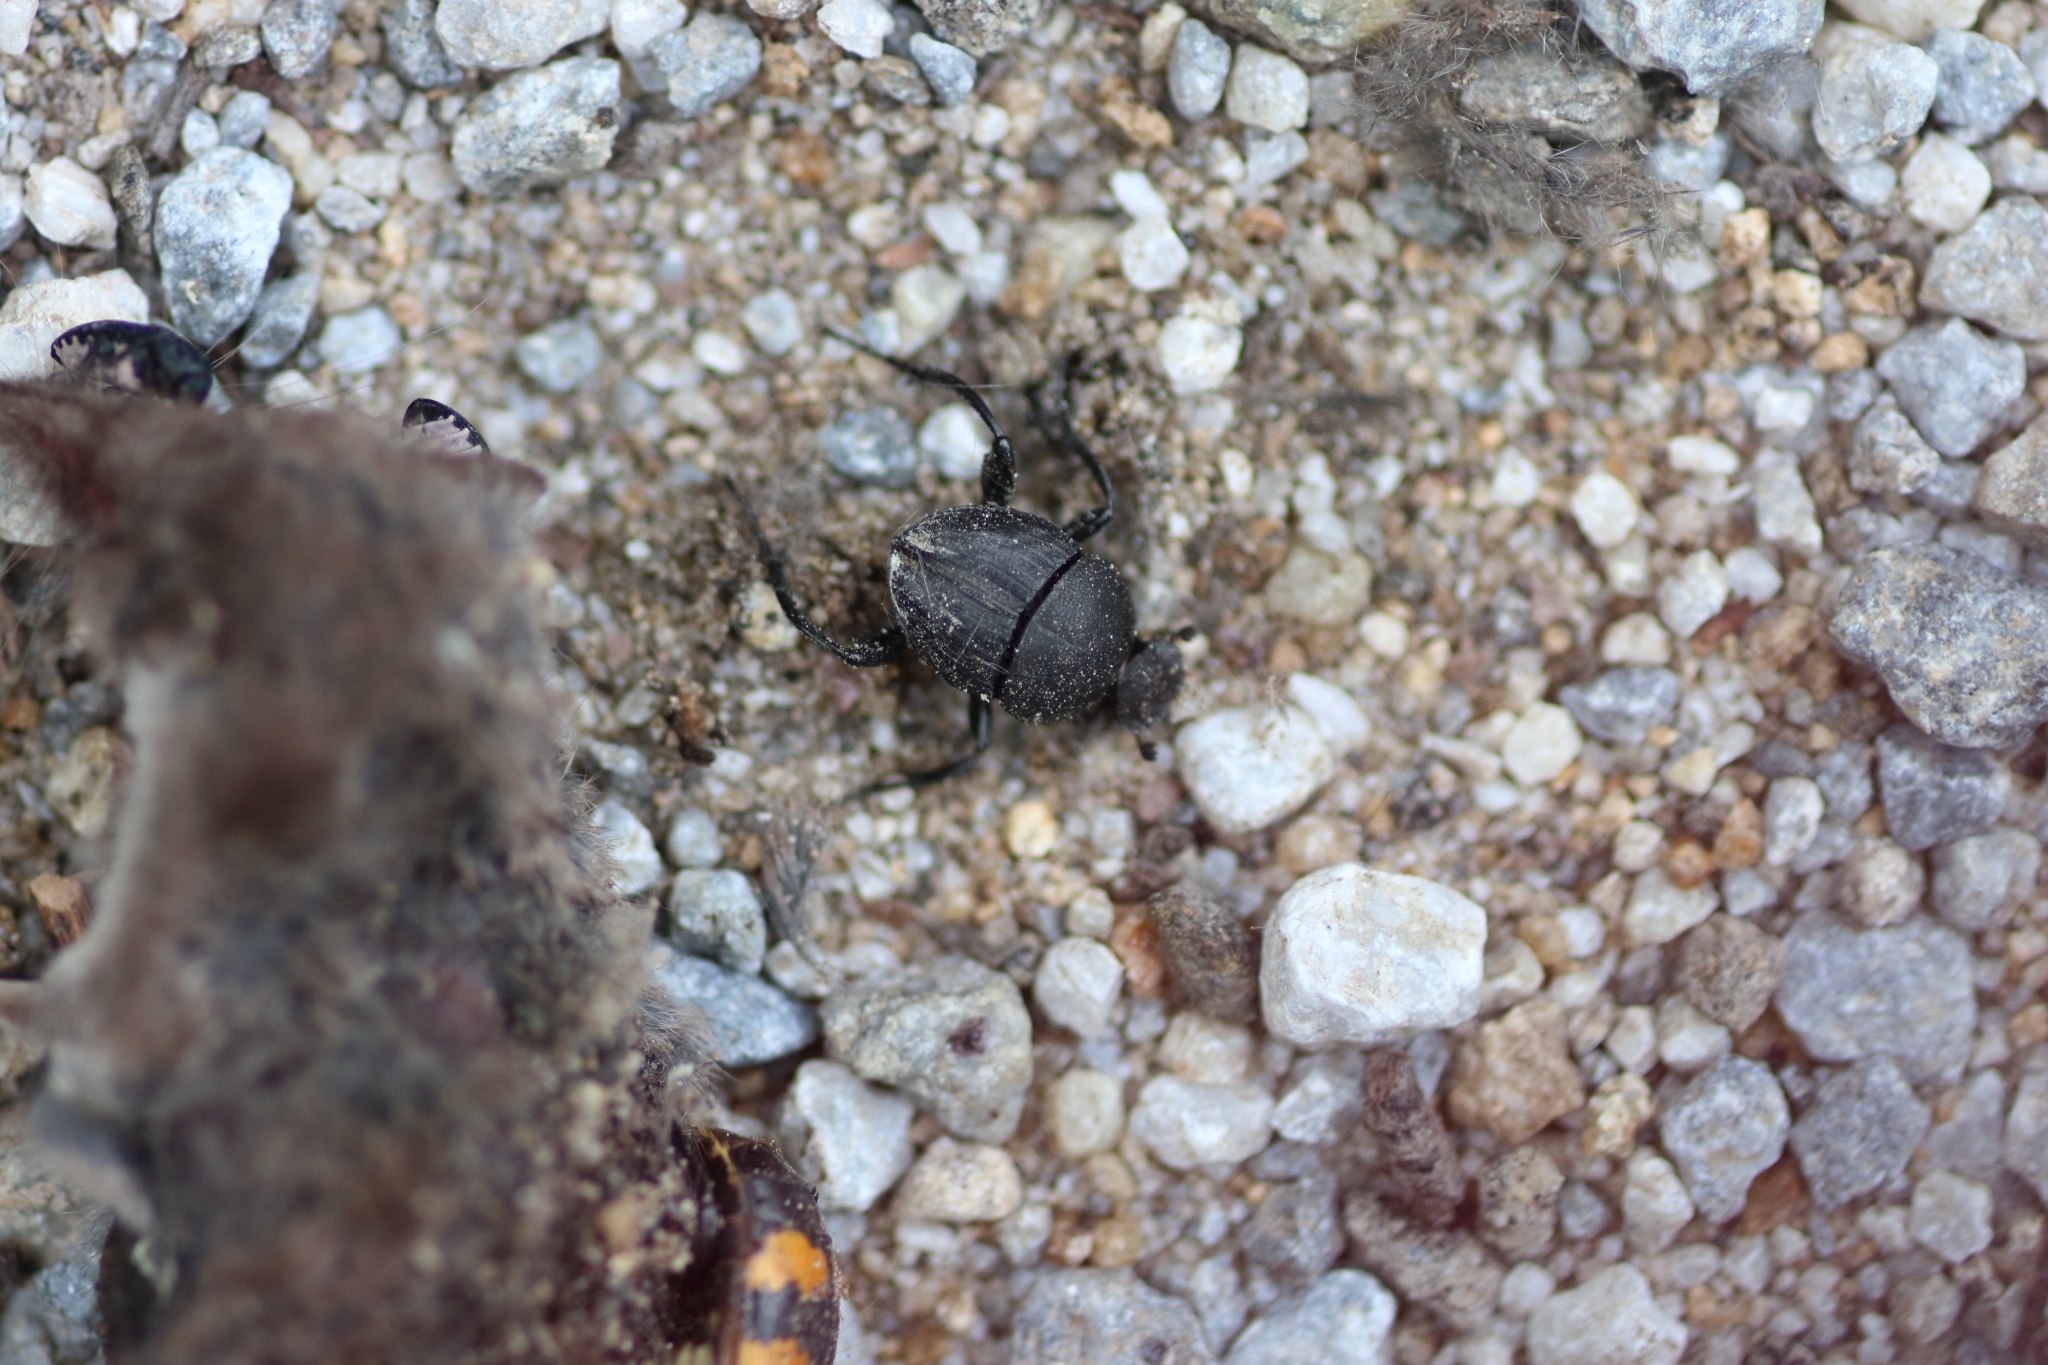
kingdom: Animalia
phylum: Arthropoda
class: Insecta
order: Coleoptera
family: Scarabaeidae
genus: Sisyphus
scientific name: Sisyphus schaefferi
